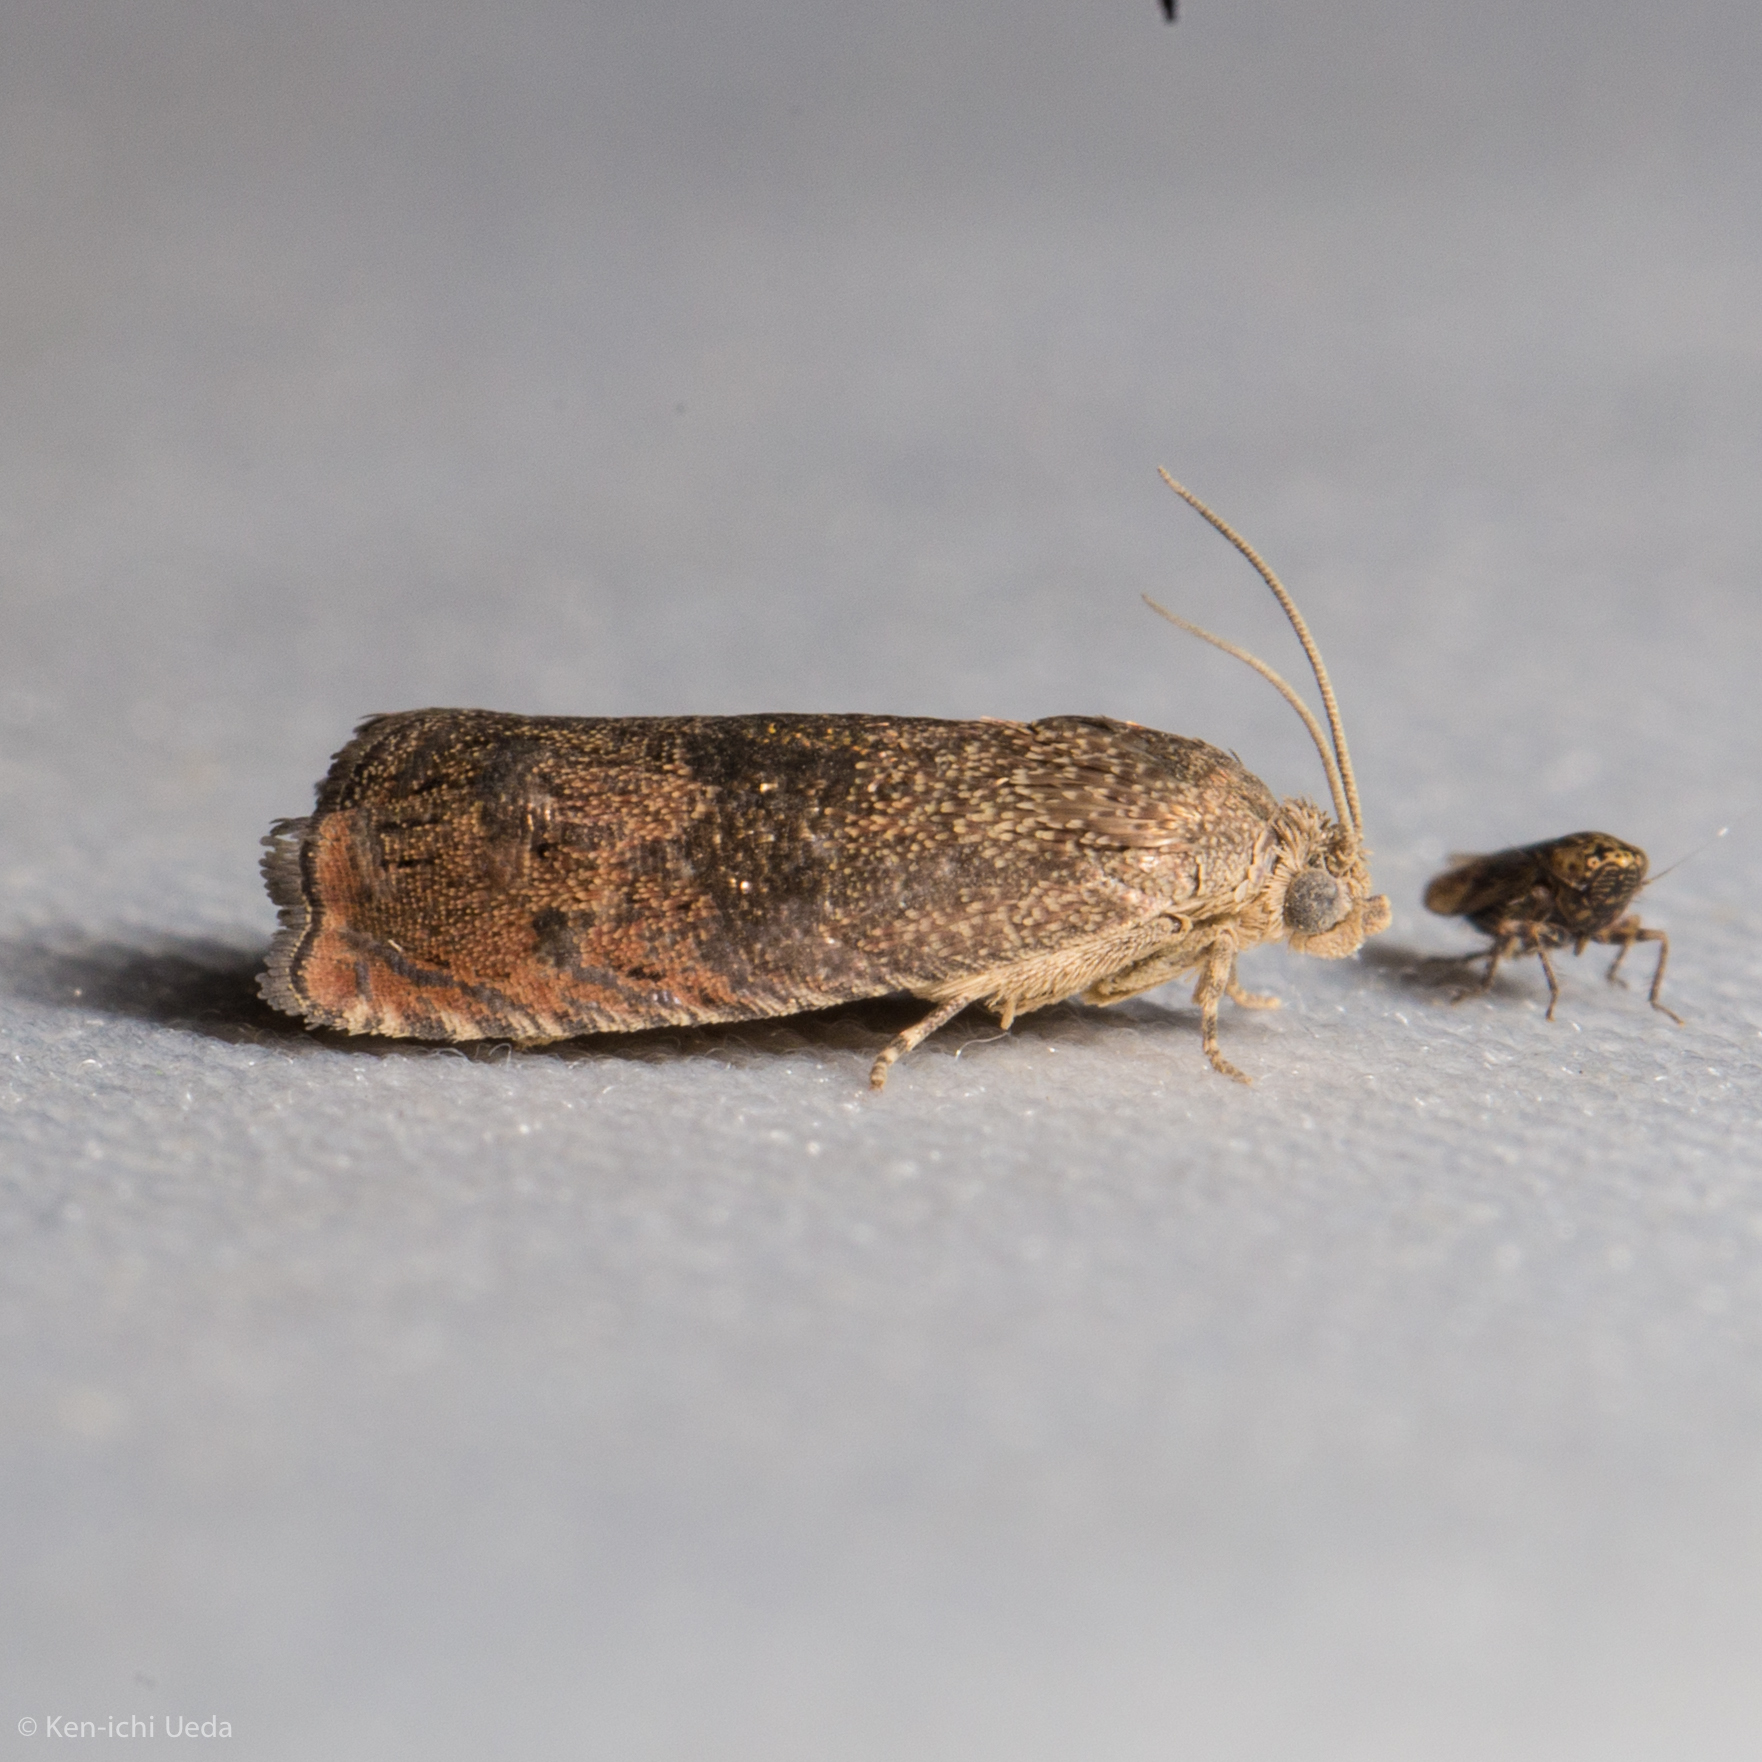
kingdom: Animalia
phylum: Arthropoda
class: Insecta
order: Lepidoptera
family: Tortricidae
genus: Cydia
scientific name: Cydia latiferreana
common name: Filbertworm moth
